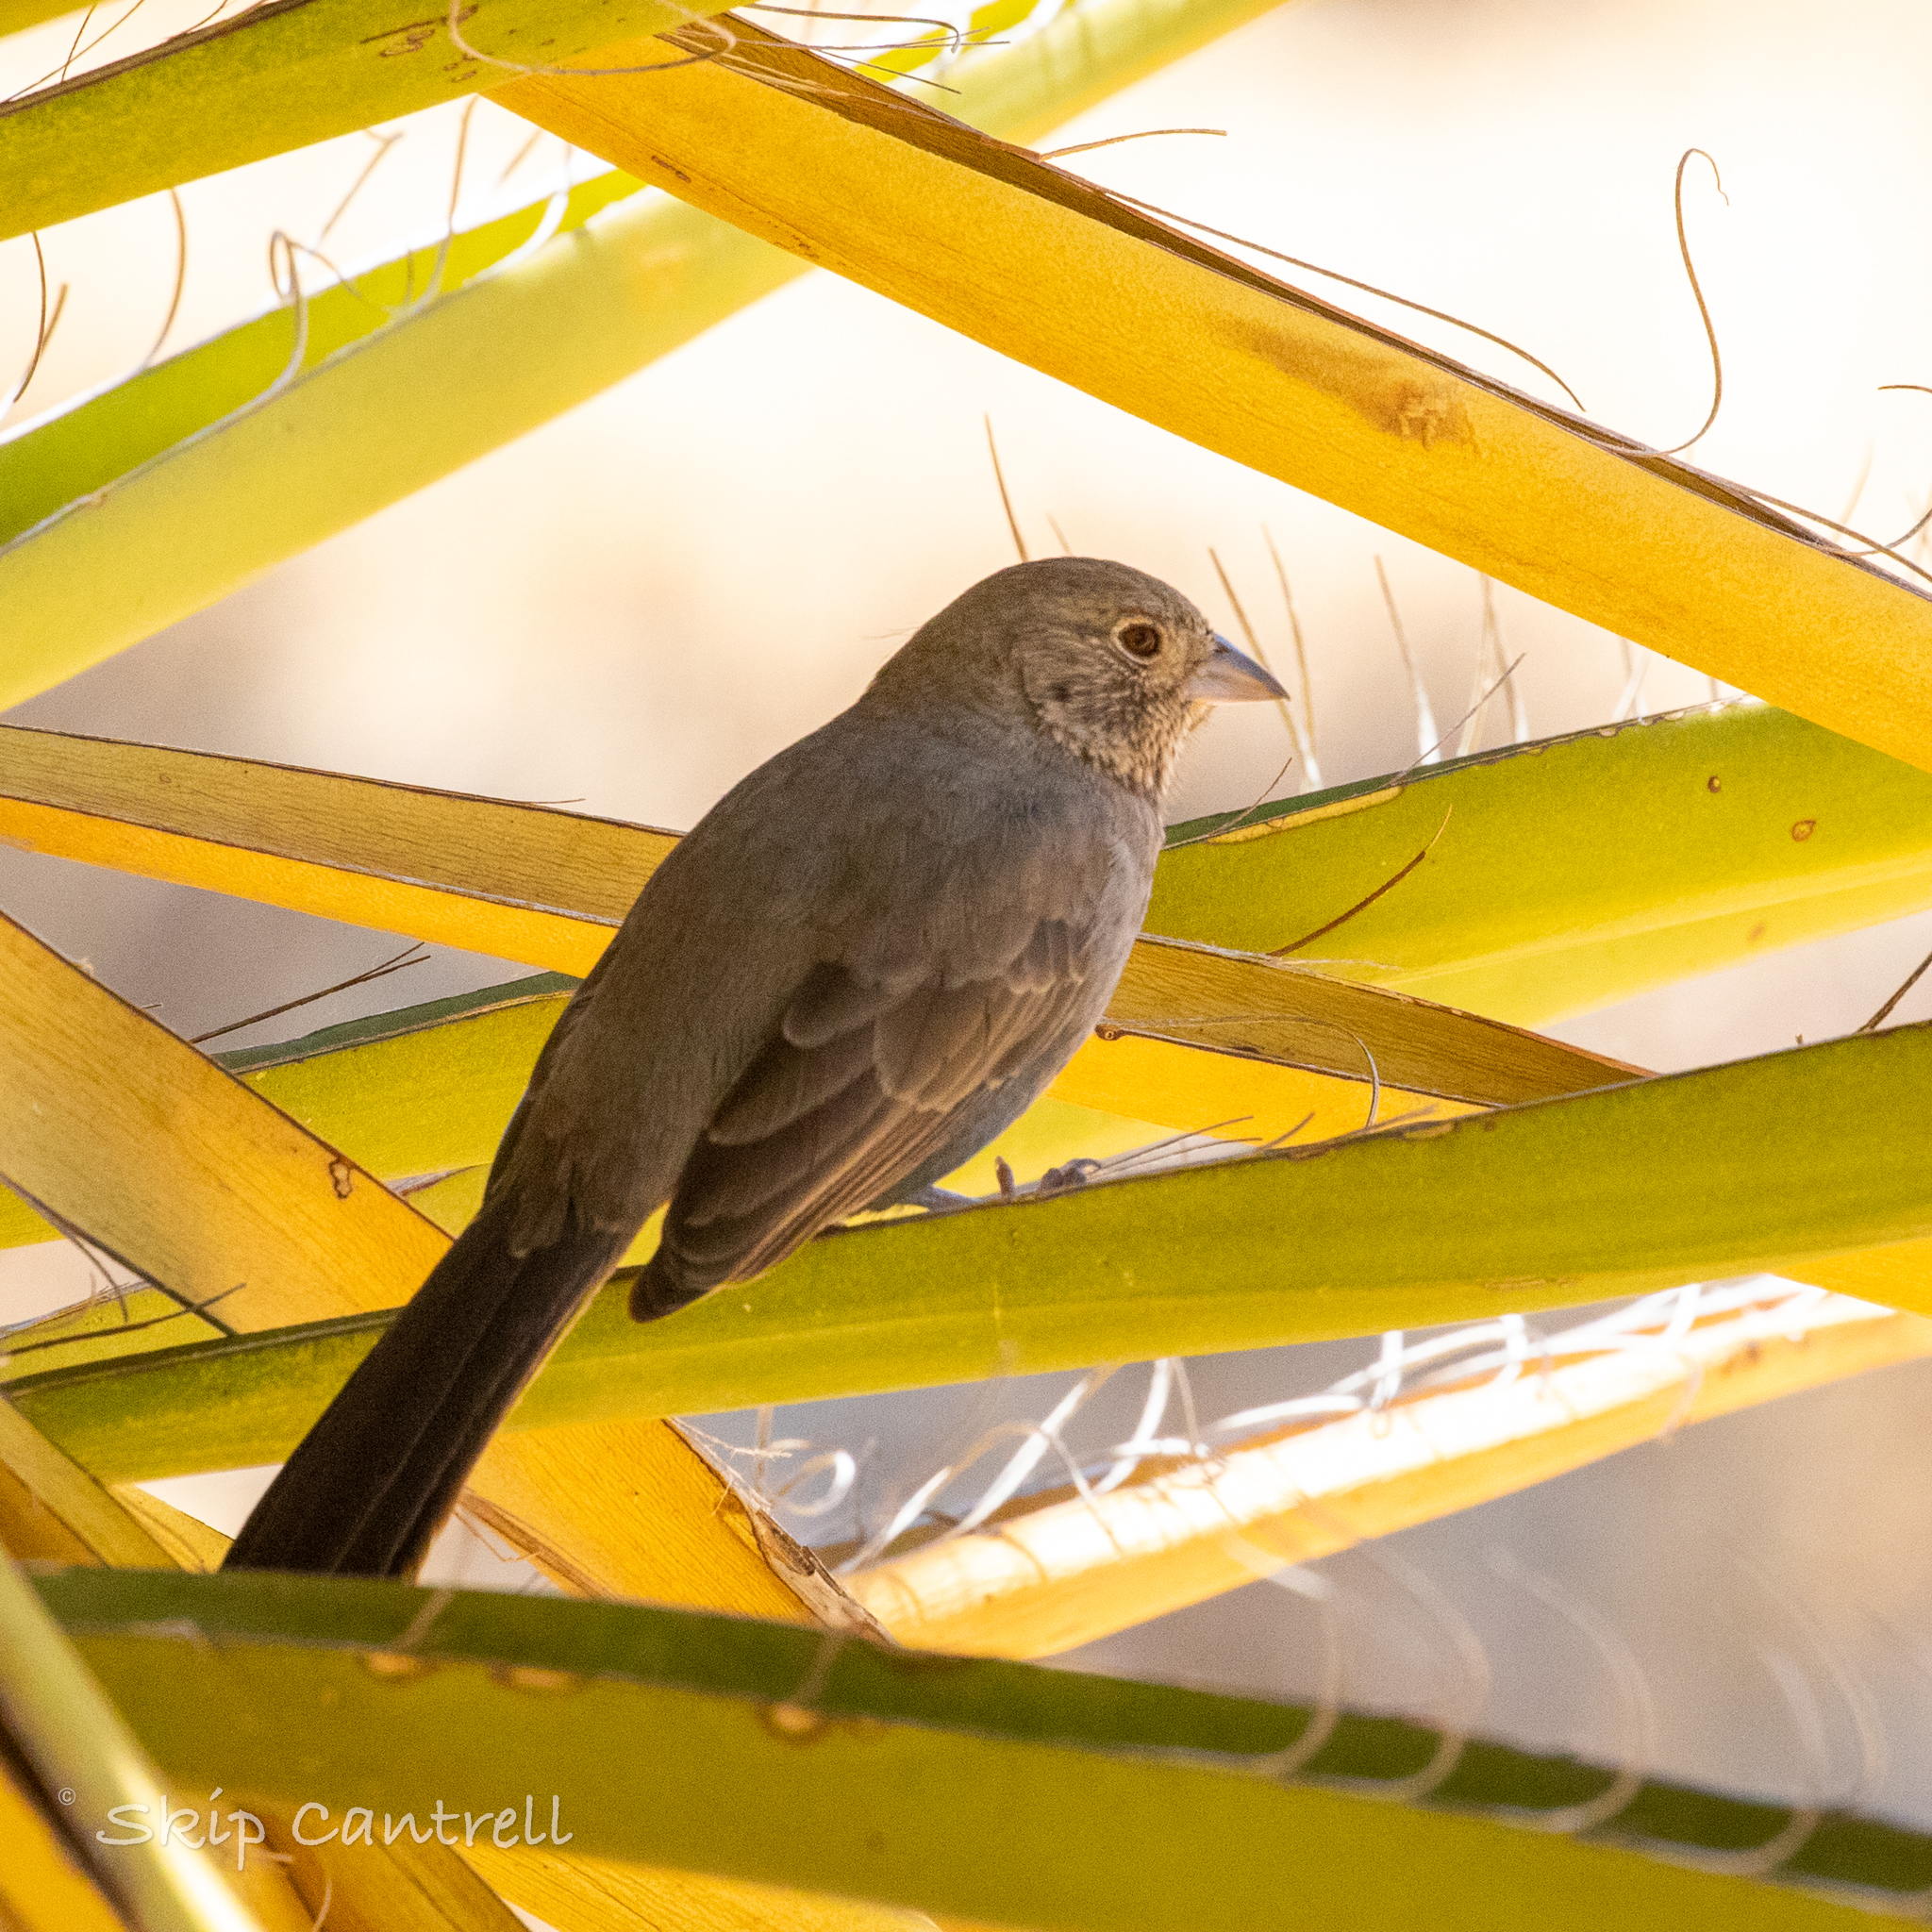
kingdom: Animalia
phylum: Chordata
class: Aves
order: Passeriformes
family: Passerellidae
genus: Melozone
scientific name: Melozone fusca
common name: Canyon towhee
